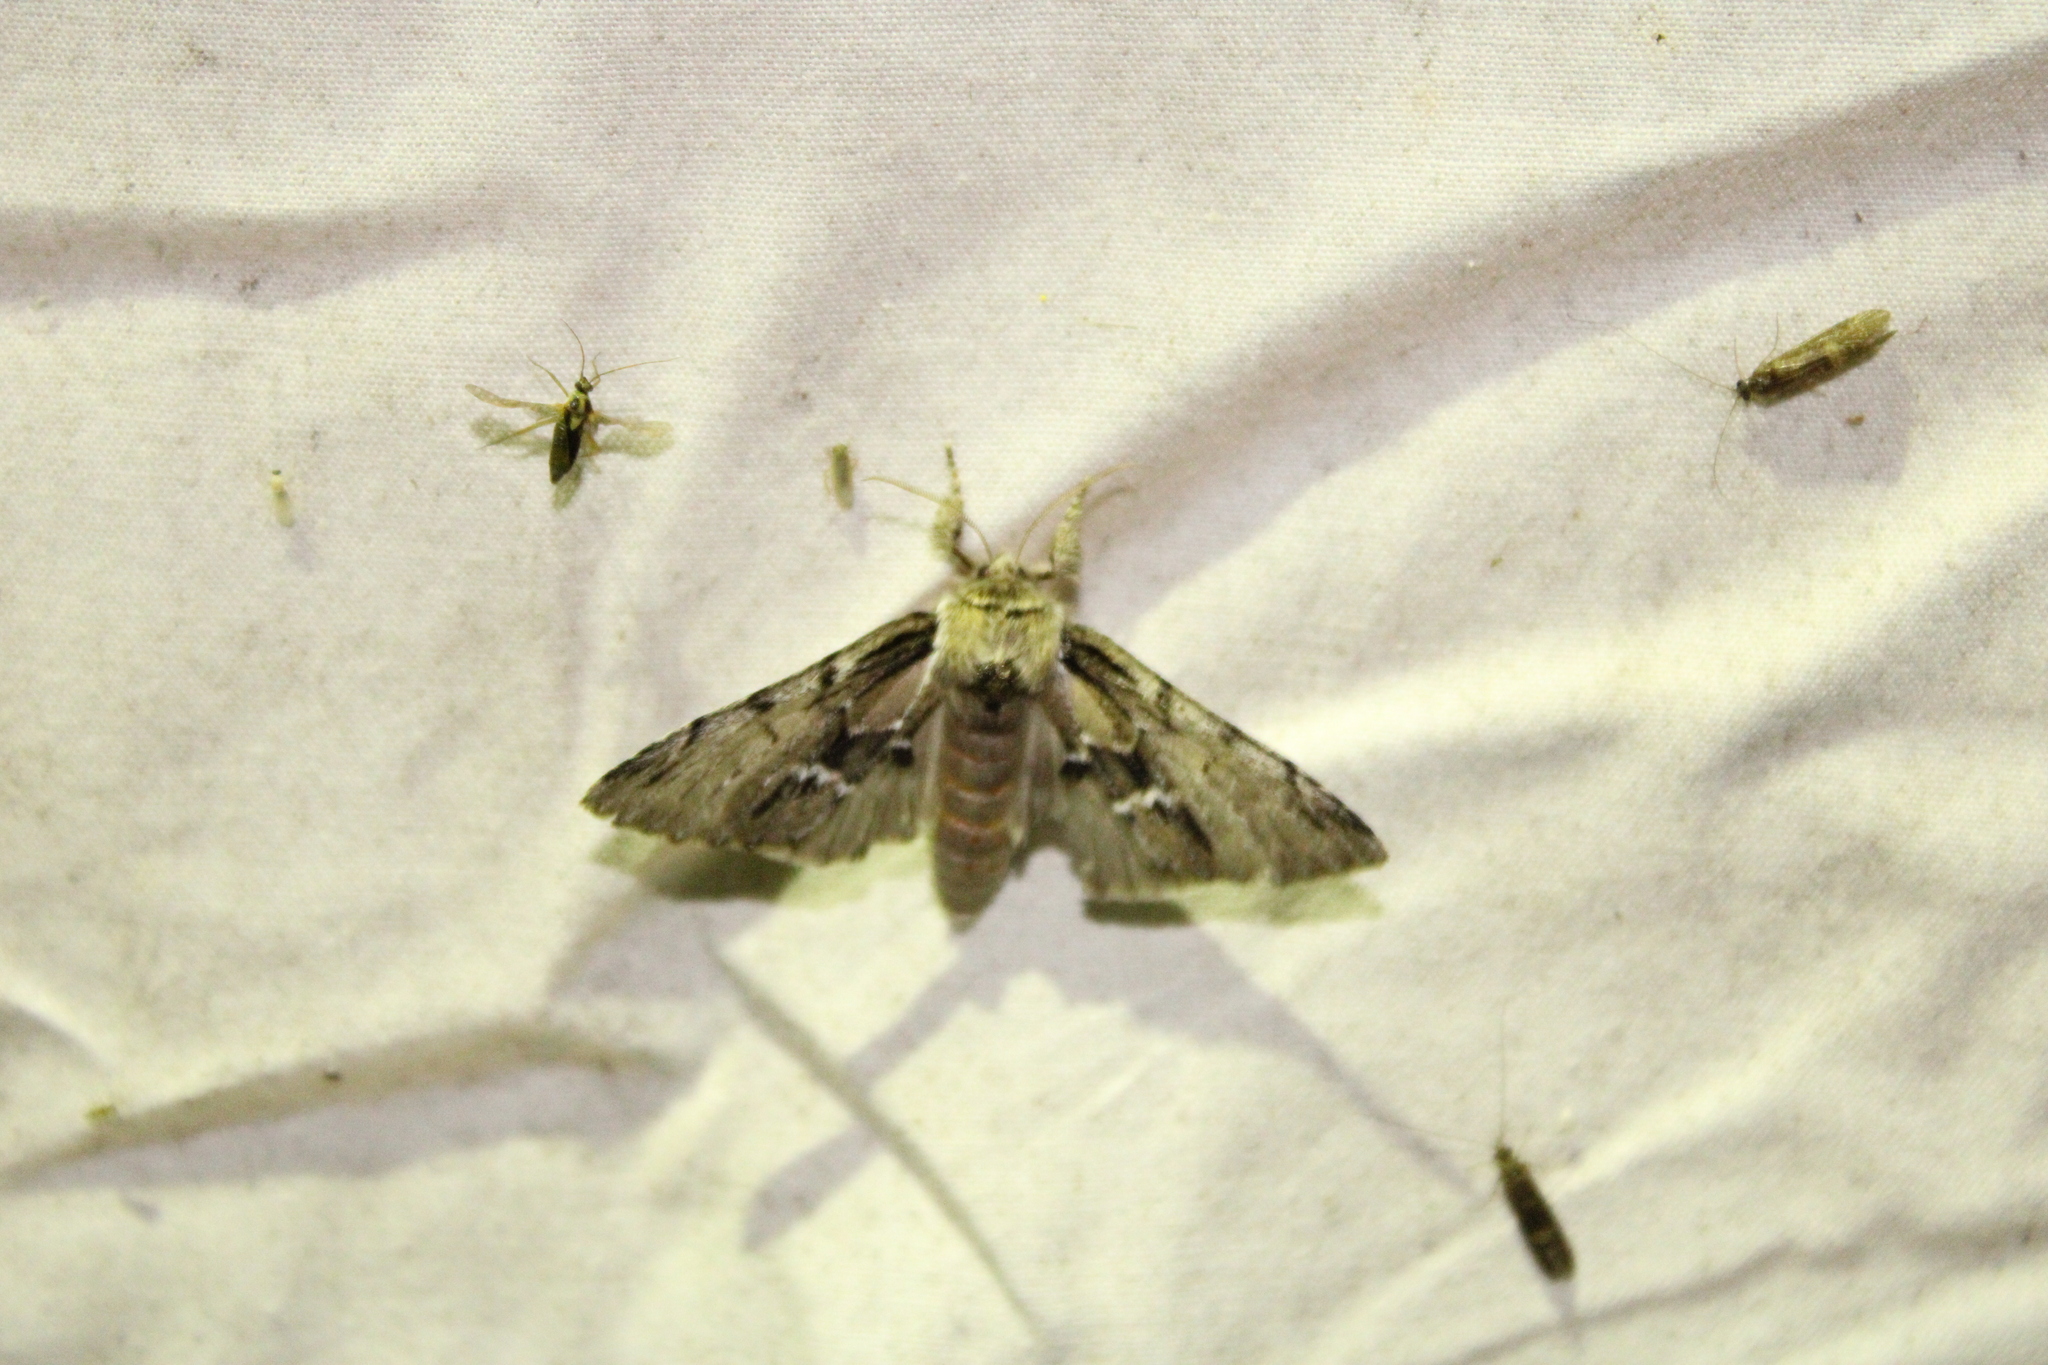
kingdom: Animalia
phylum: Arthropoda
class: Insecta
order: Lepidoptera
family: Notodontidae
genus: Paraeschra
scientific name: Paraeschra georgica
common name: Georgian prominent
